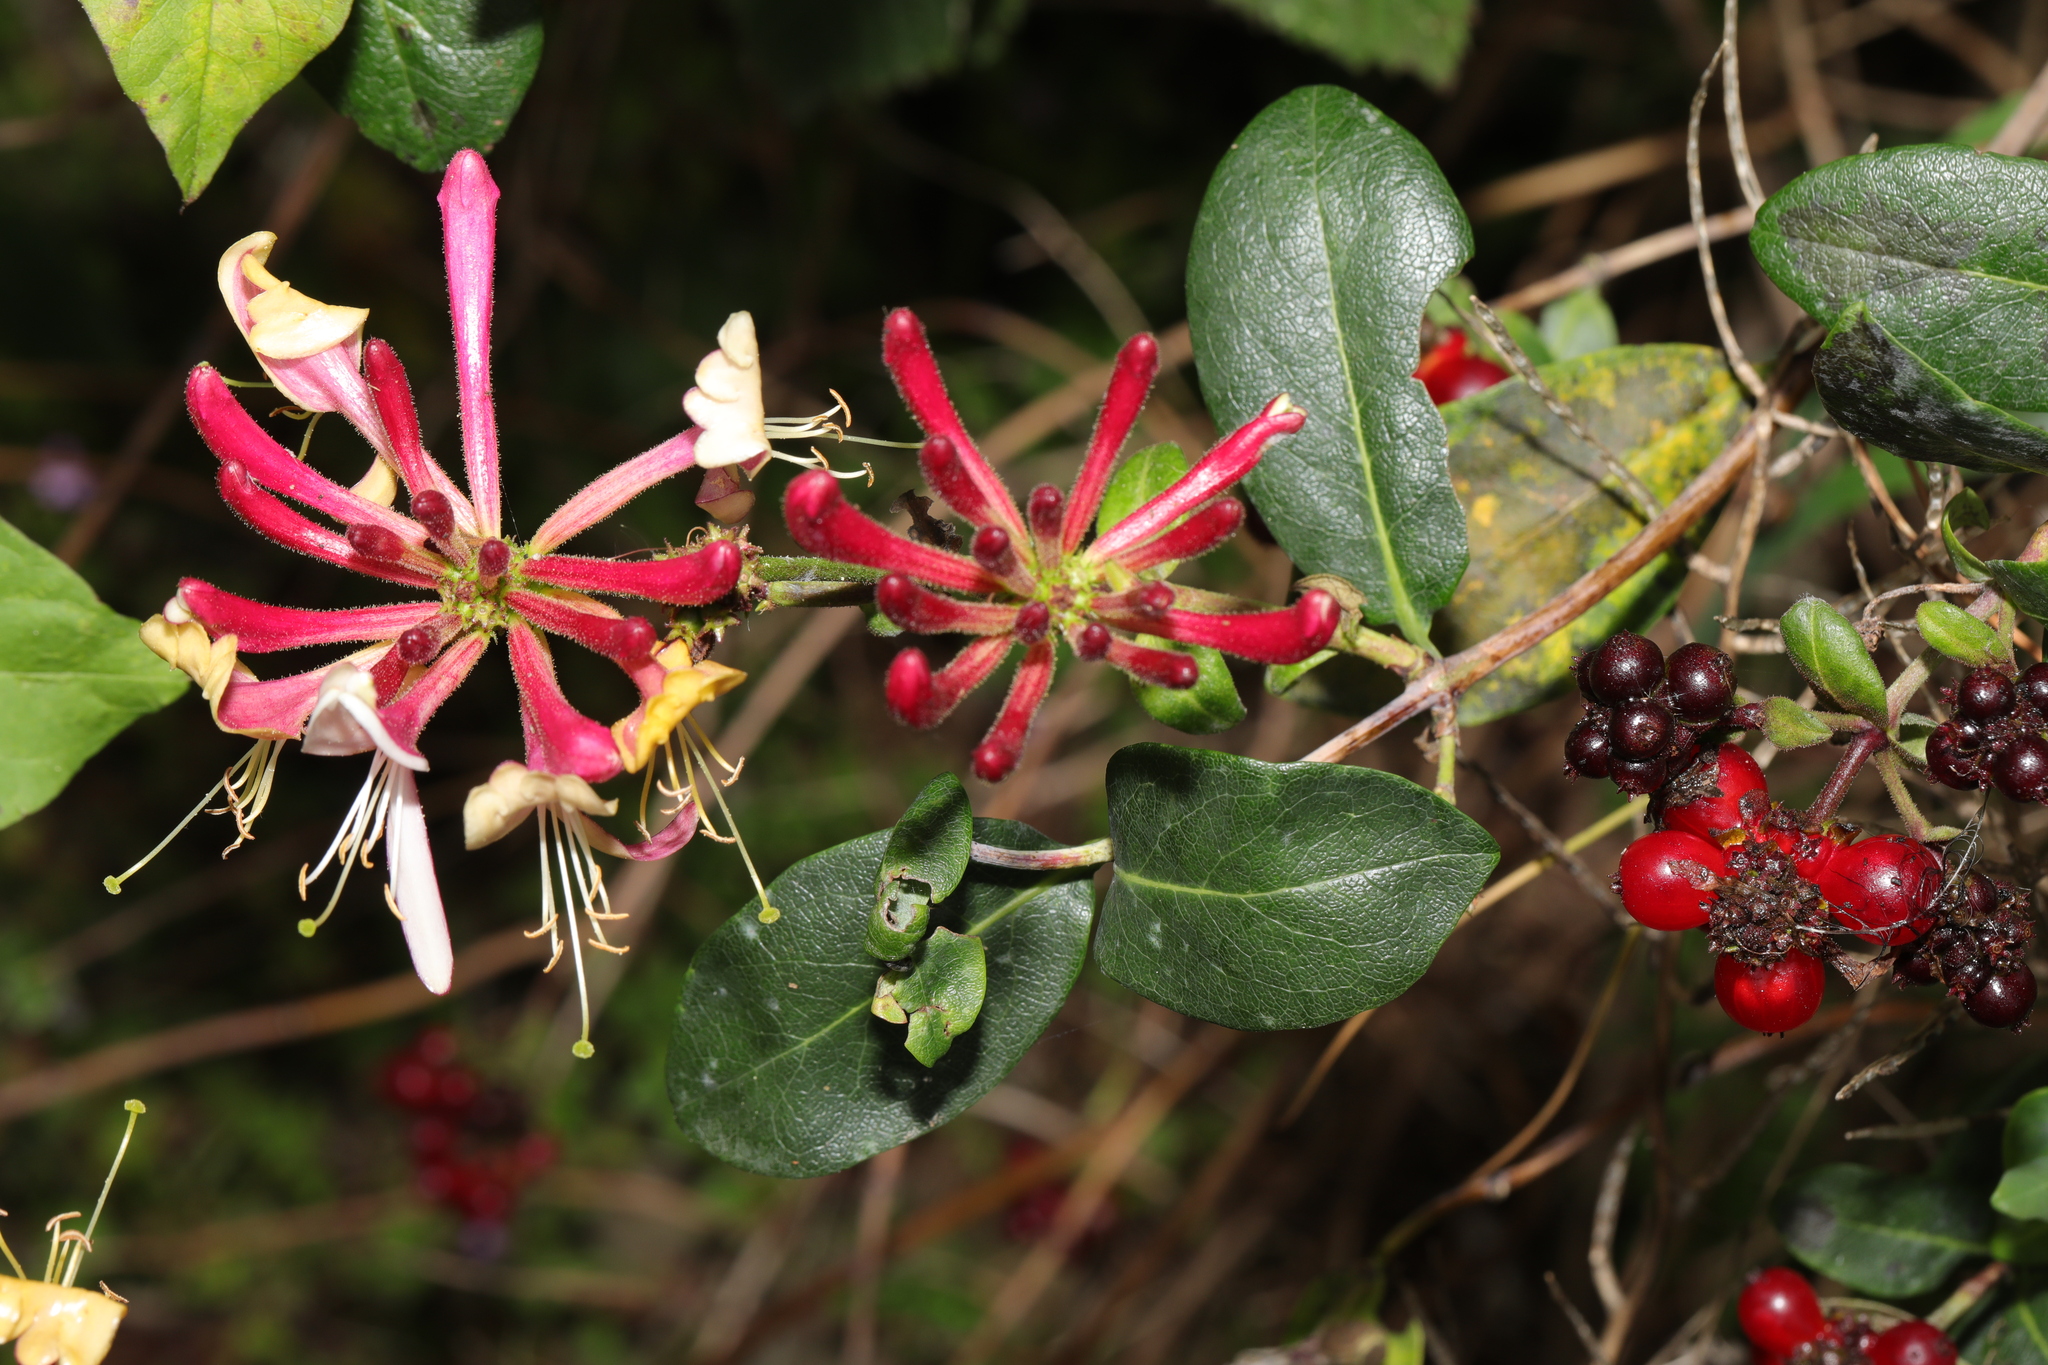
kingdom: Plantae
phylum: Tracheophyta
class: Magnoliopsida
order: Dipsacales
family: Caprifoliaceae
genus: Lonicera
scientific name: Lonicera periclymenum
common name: European honeysuckle
